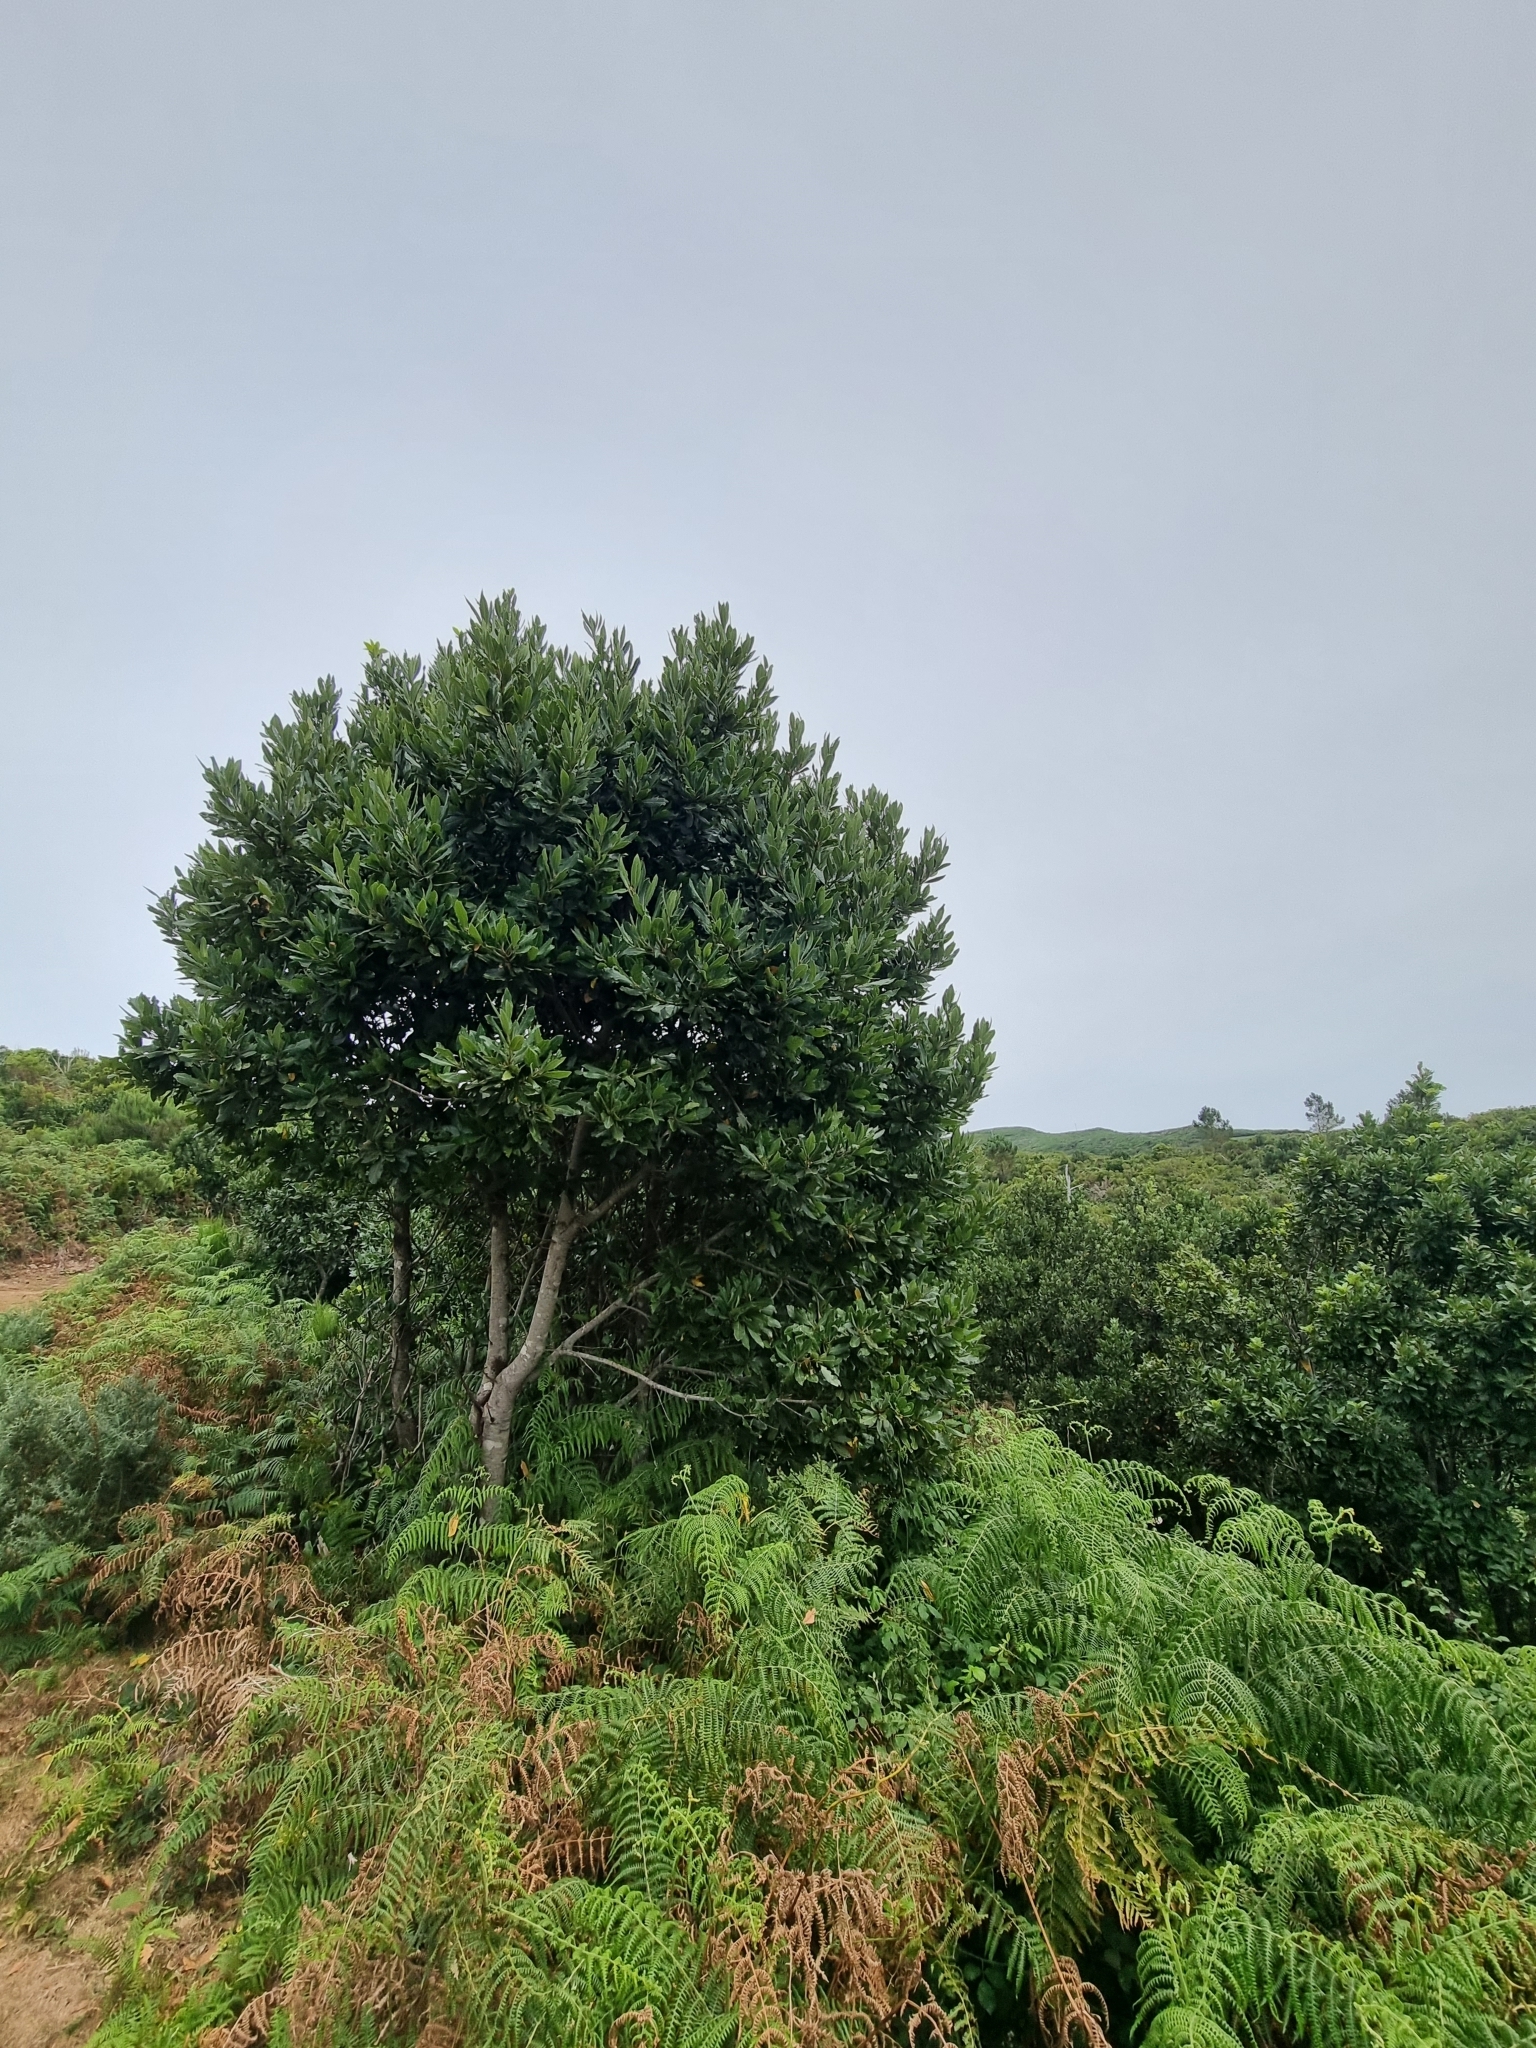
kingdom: Plantae
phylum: Tracheophyta
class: Magnoliopsida
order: Laurales
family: Lauraceae
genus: Laurus
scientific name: Laurus novocanariensis
